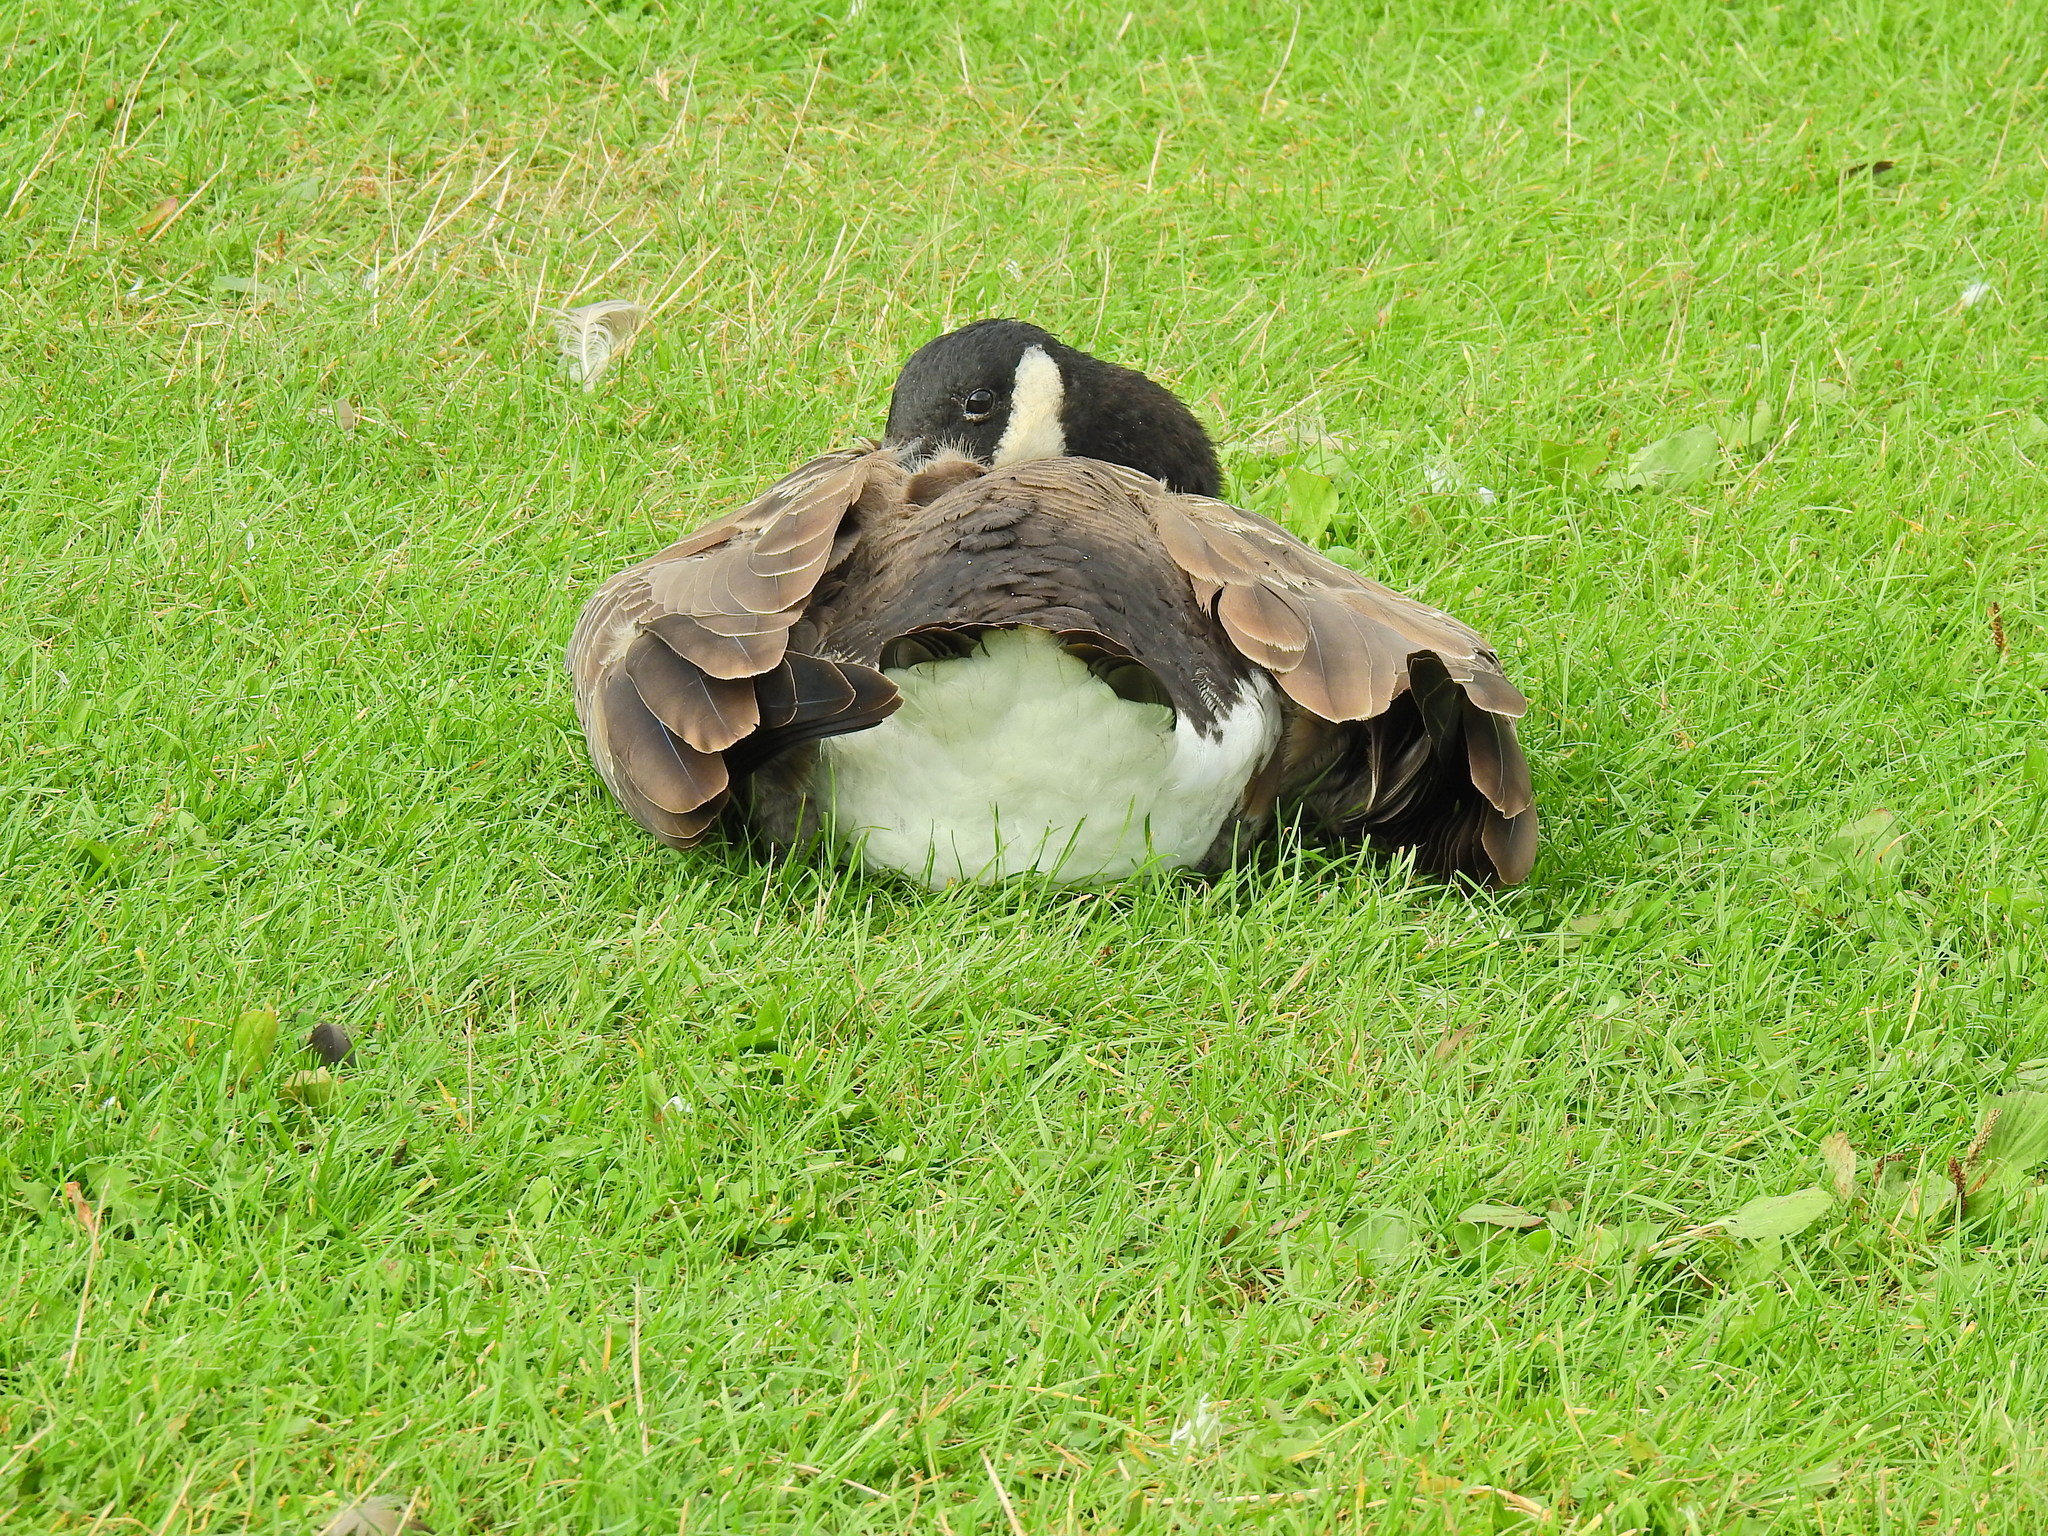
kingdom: Animalia
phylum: Chordata
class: Aves
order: Anseriformes
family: Anatidae
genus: Branta
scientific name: Branta canadensis
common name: Canada goose
